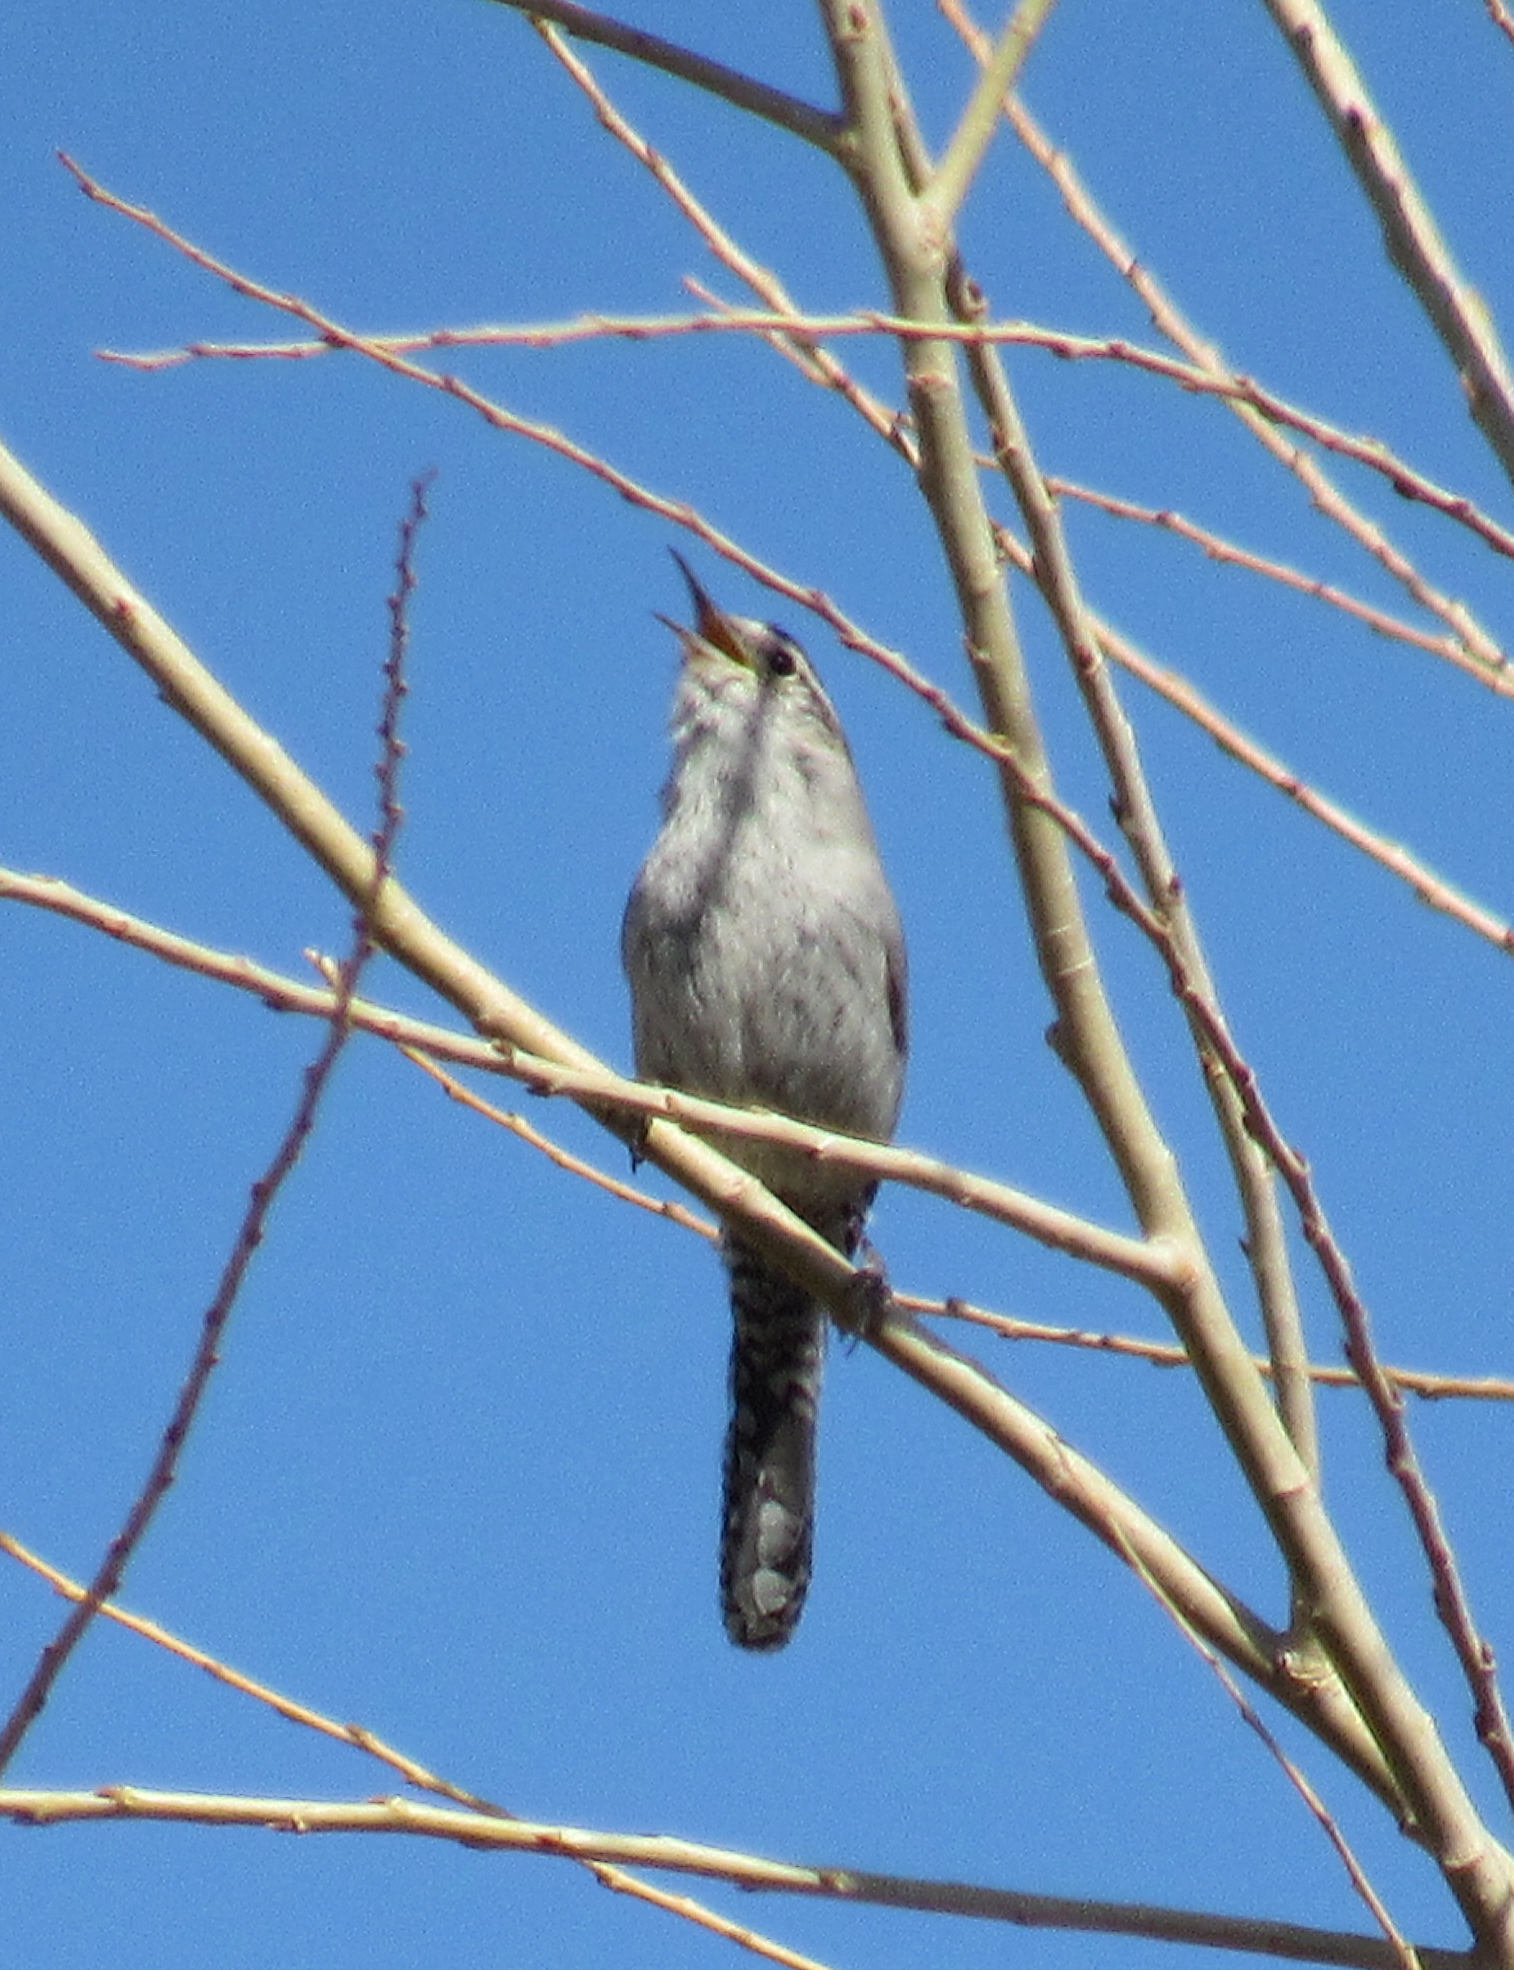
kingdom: Animalia
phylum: Chordata
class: Aves
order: Passeriformes
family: Troglodytidae
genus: Thryomanes
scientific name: Thryomanes bewickii
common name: Bewick's wren
